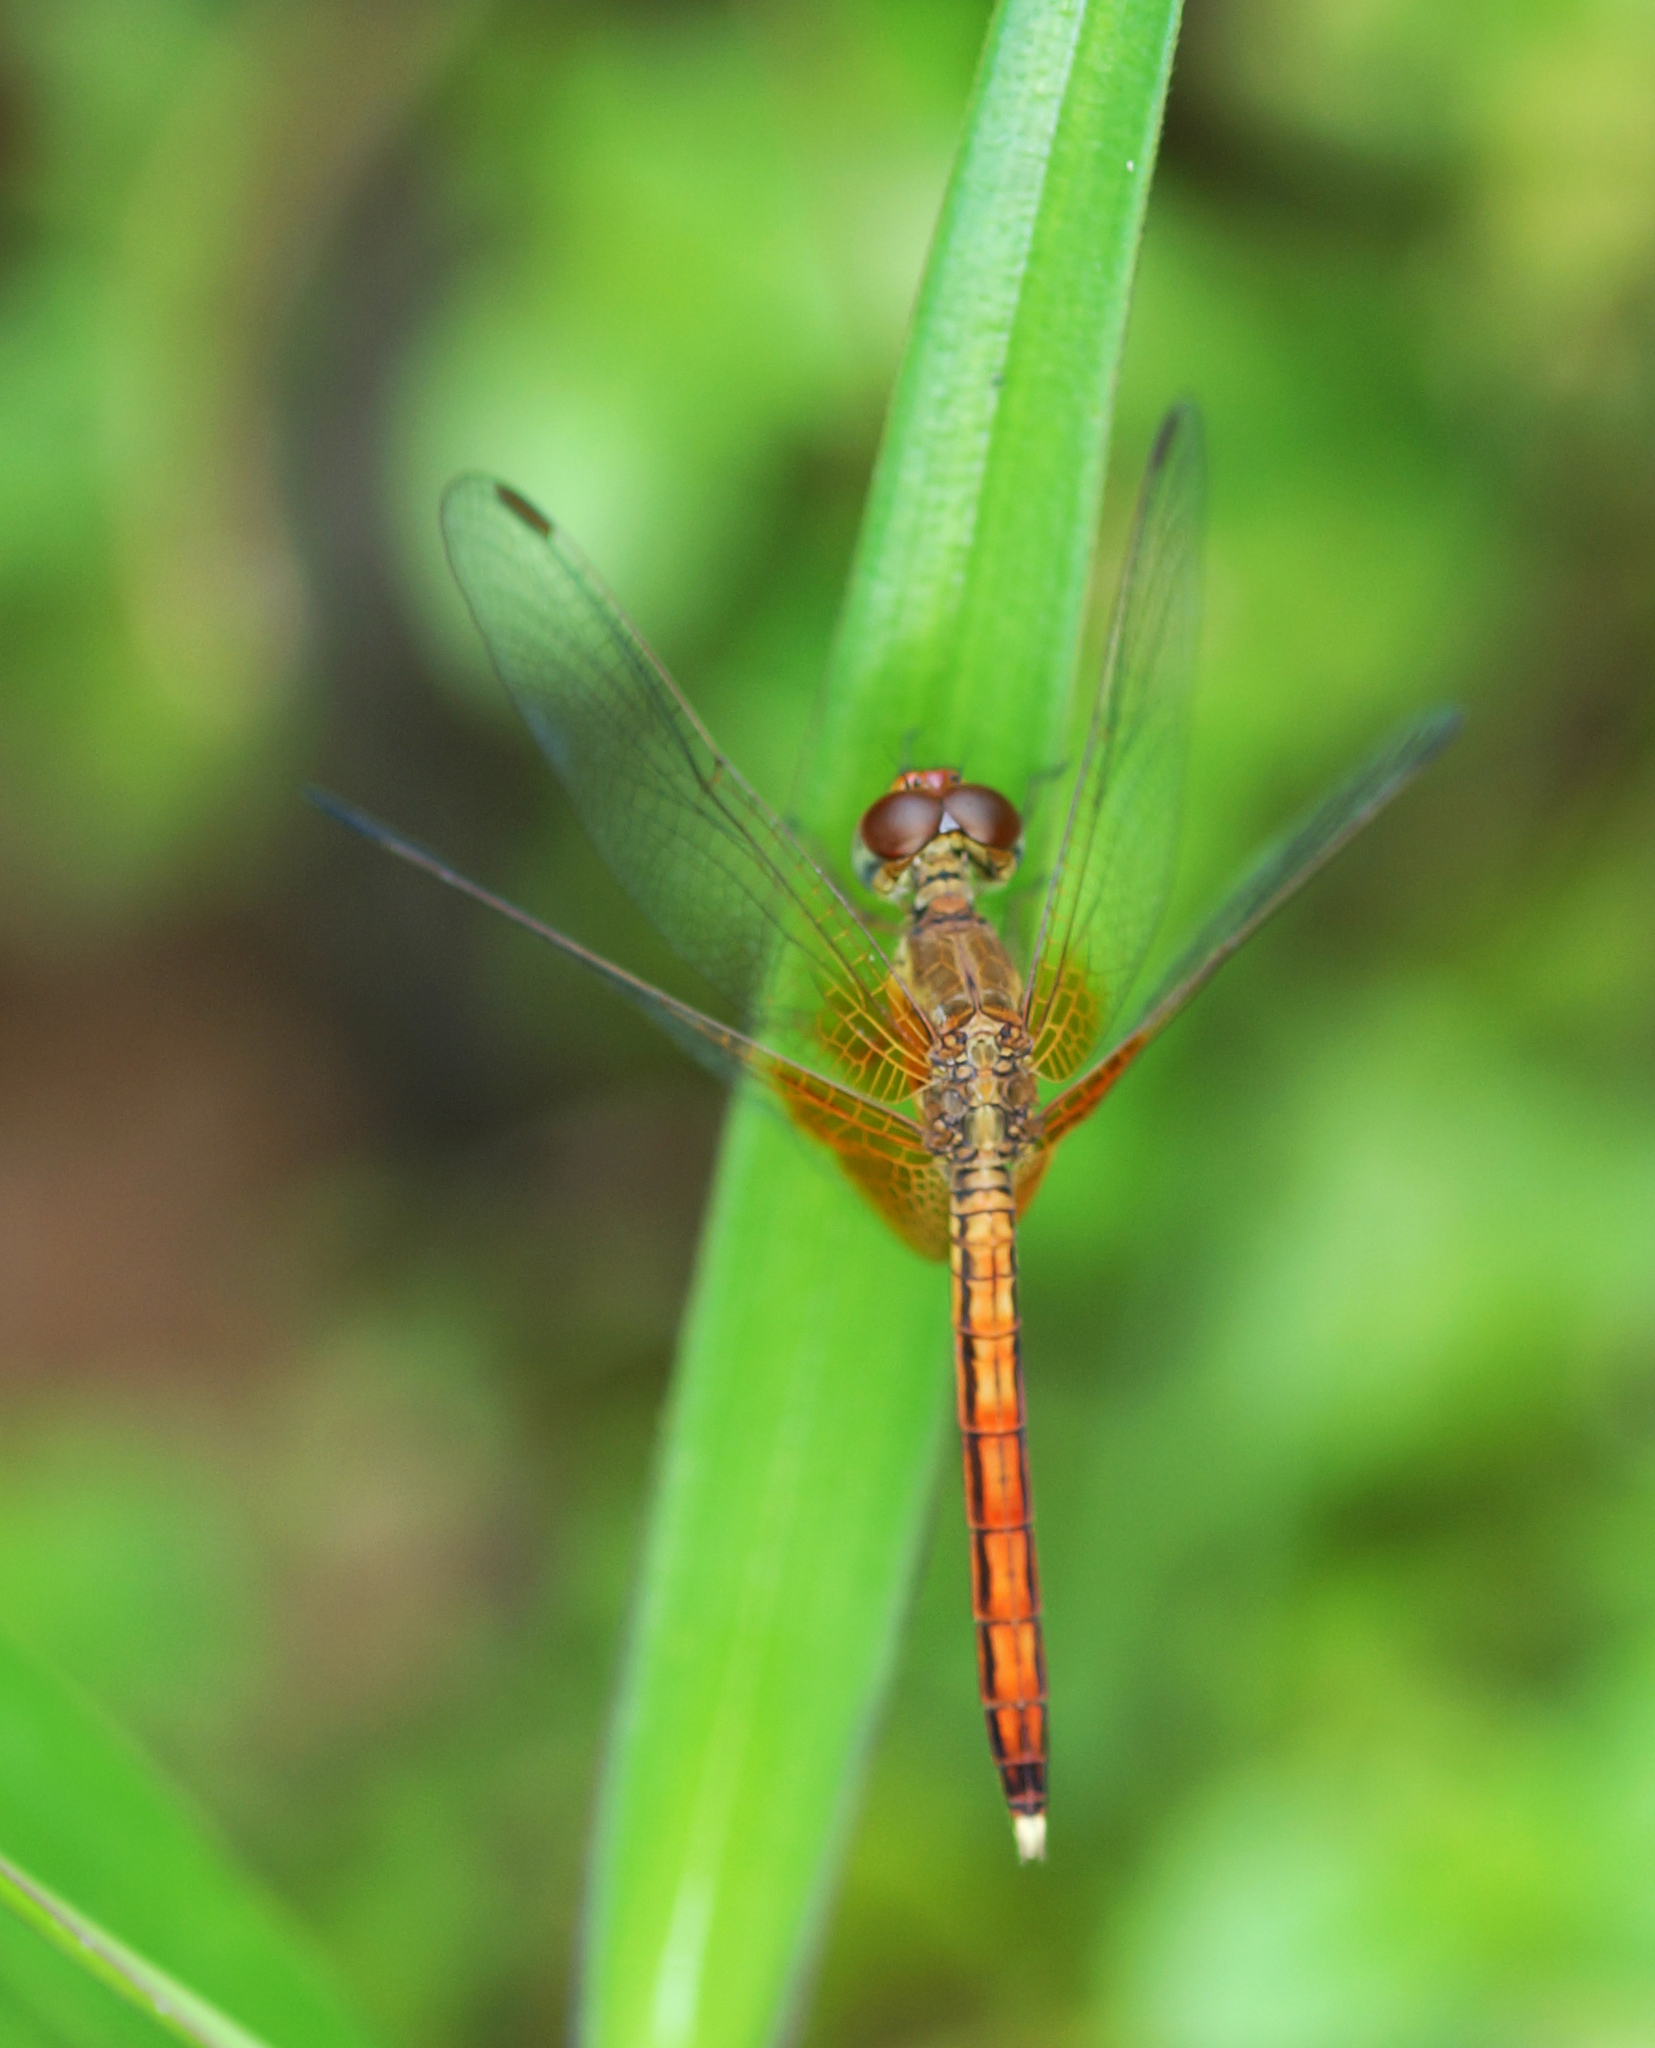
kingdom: Animalia
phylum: Arthropoda
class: Insecta
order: Odonata
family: Libellulidae
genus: Neurothemis
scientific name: Neurothemis intermedia
